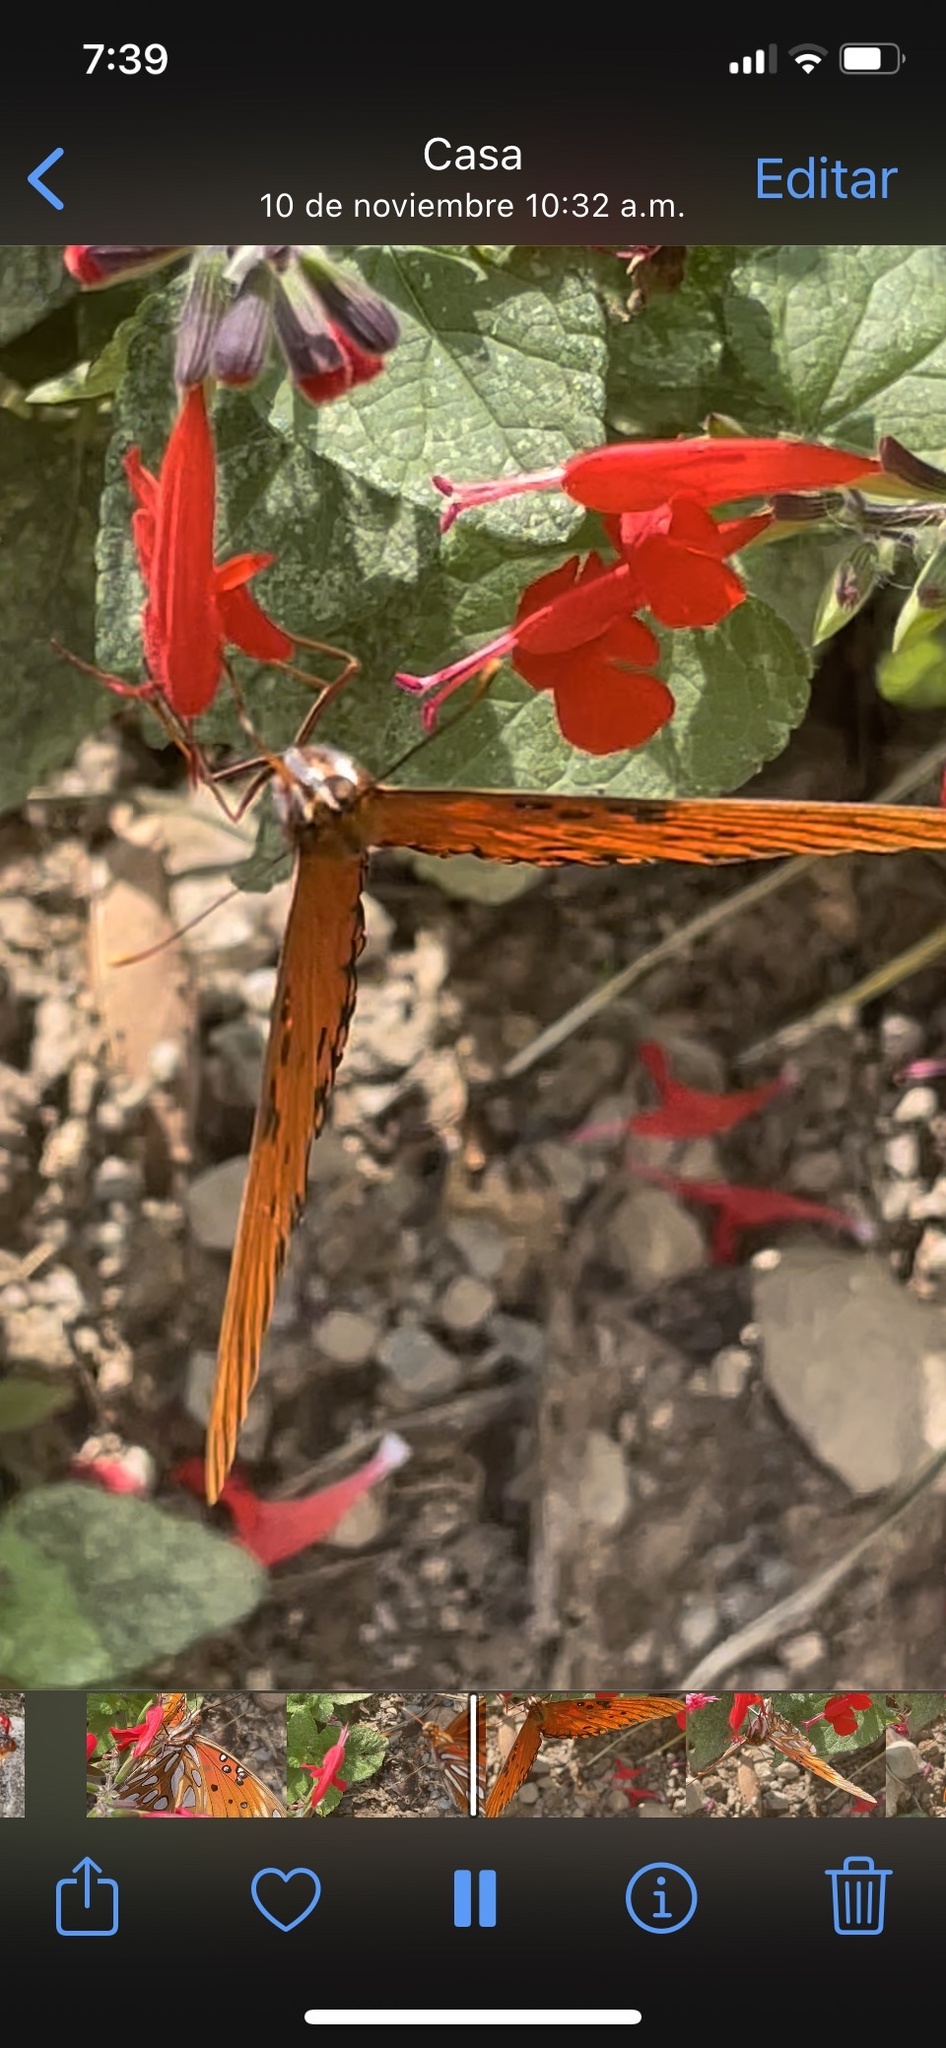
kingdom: Animalia
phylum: Arthropoda
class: Insecta
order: Lepidoptera
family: Nymphalidae
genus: Dione
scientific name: Dione vanillae
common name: Gulf fritillary
